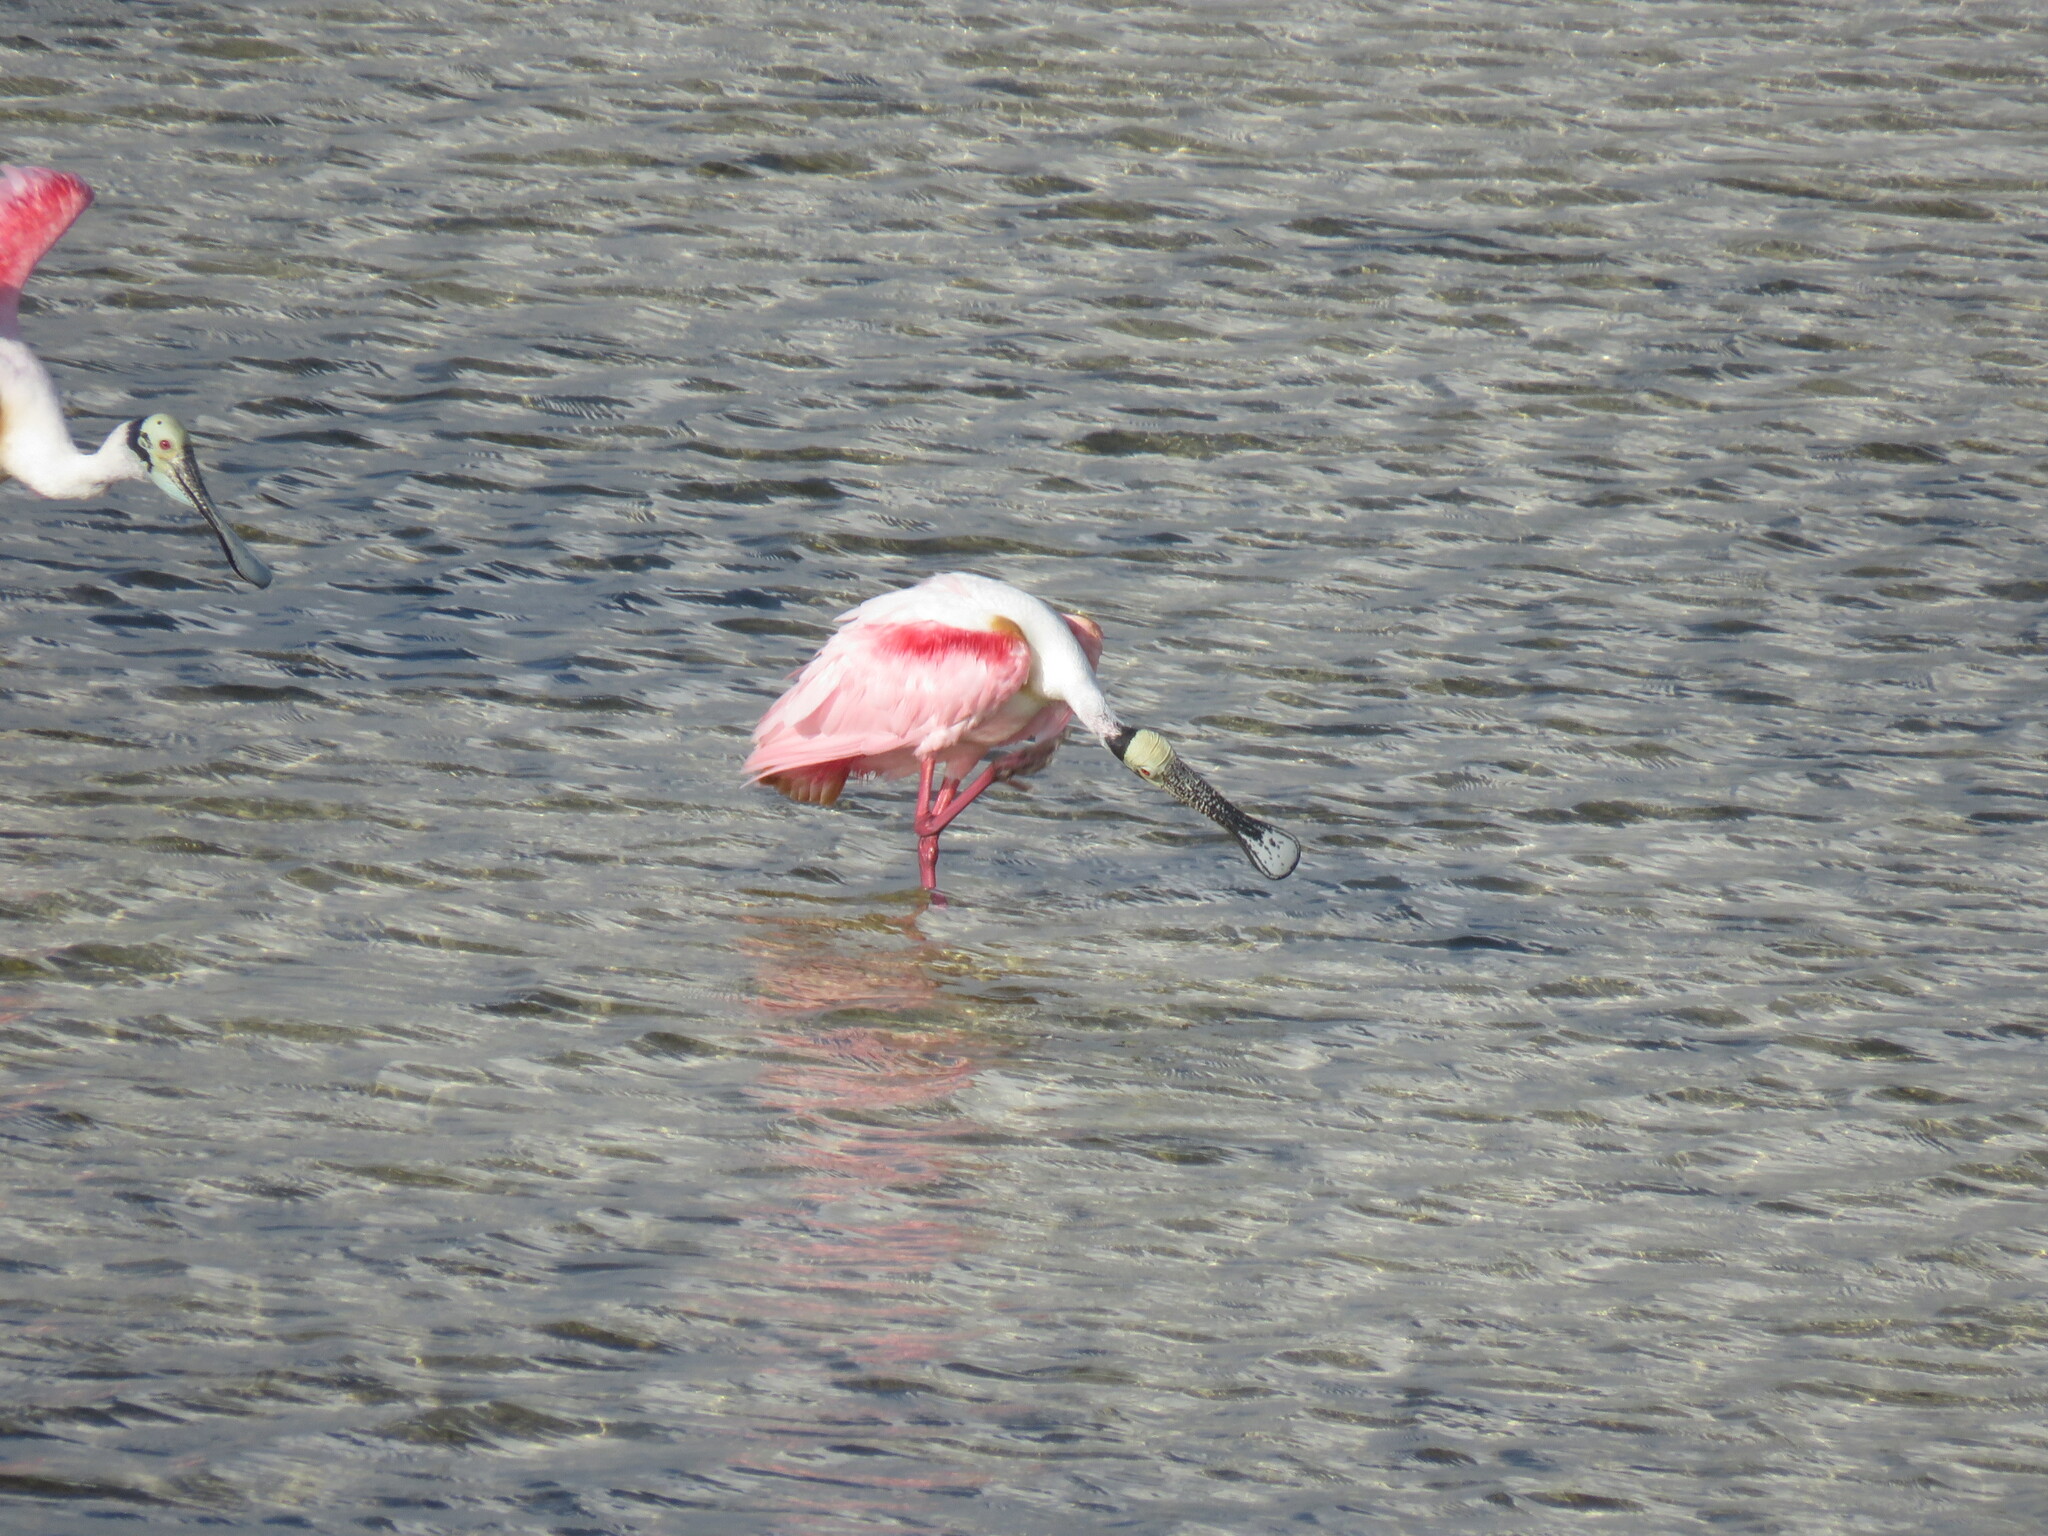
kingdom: Animalia
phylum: Chordata
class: Aves
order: Pelecaniformes
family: Threskiornithidae
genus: Platalea
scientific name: Platalea ajaja
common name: Roseate spoonbill
